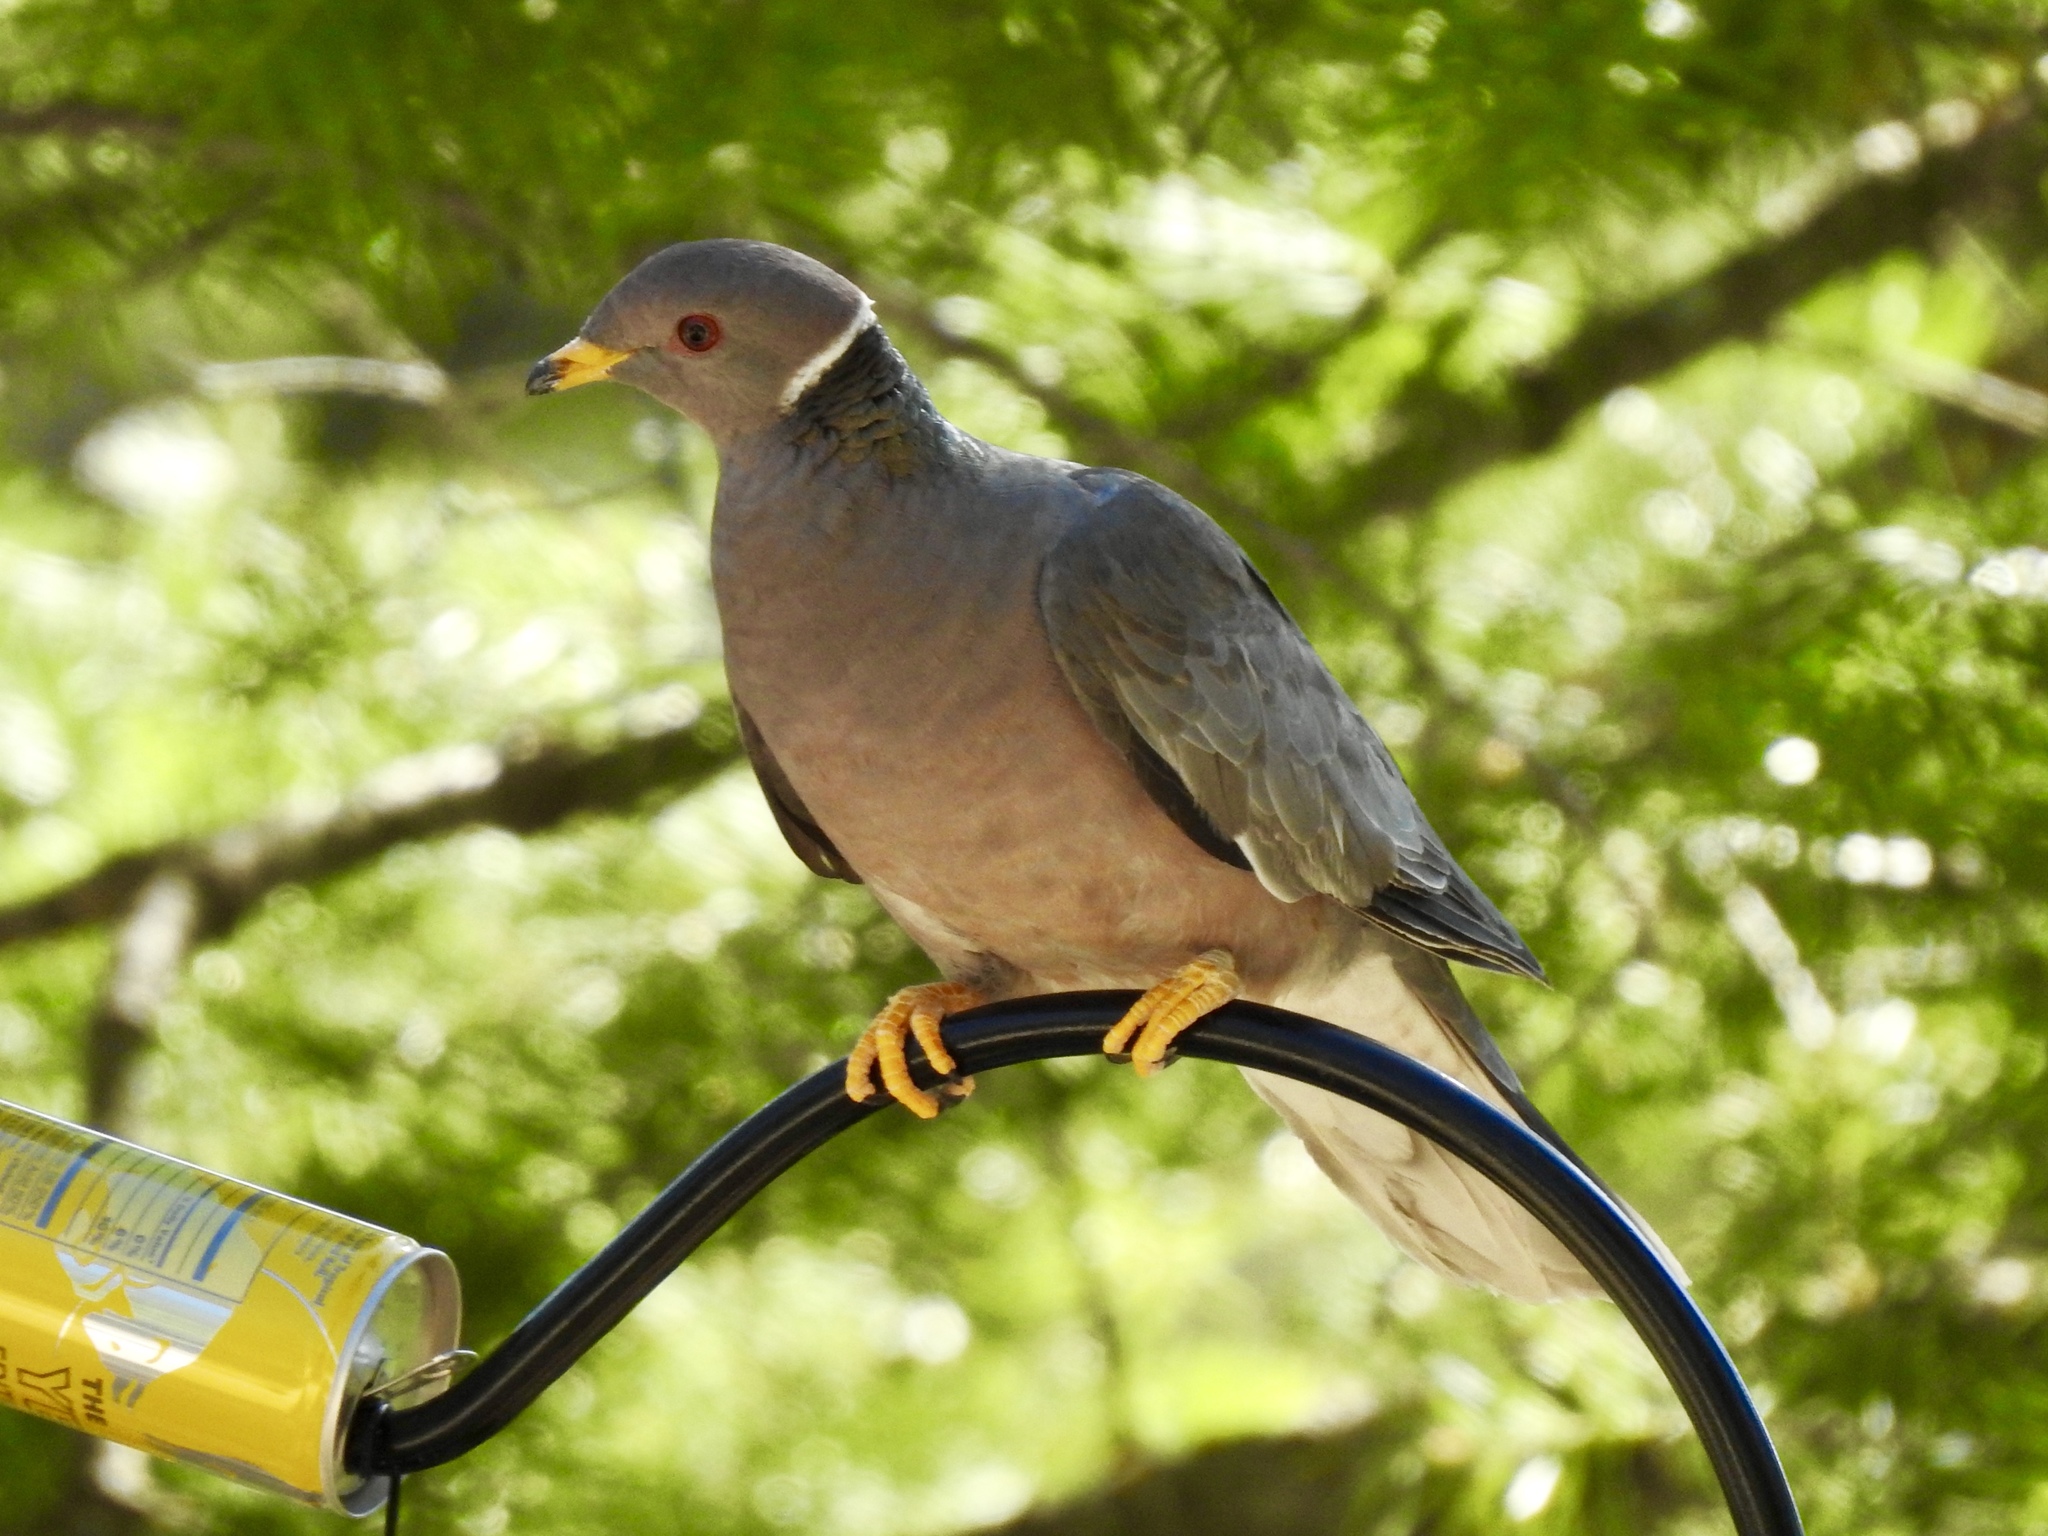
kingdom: Animalia
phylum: Chordata
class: Aves
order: Columbiformes
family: Columbidae
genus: Patagioenas
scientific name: Patagioenas fasciata
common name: Band-tailed pigeon
